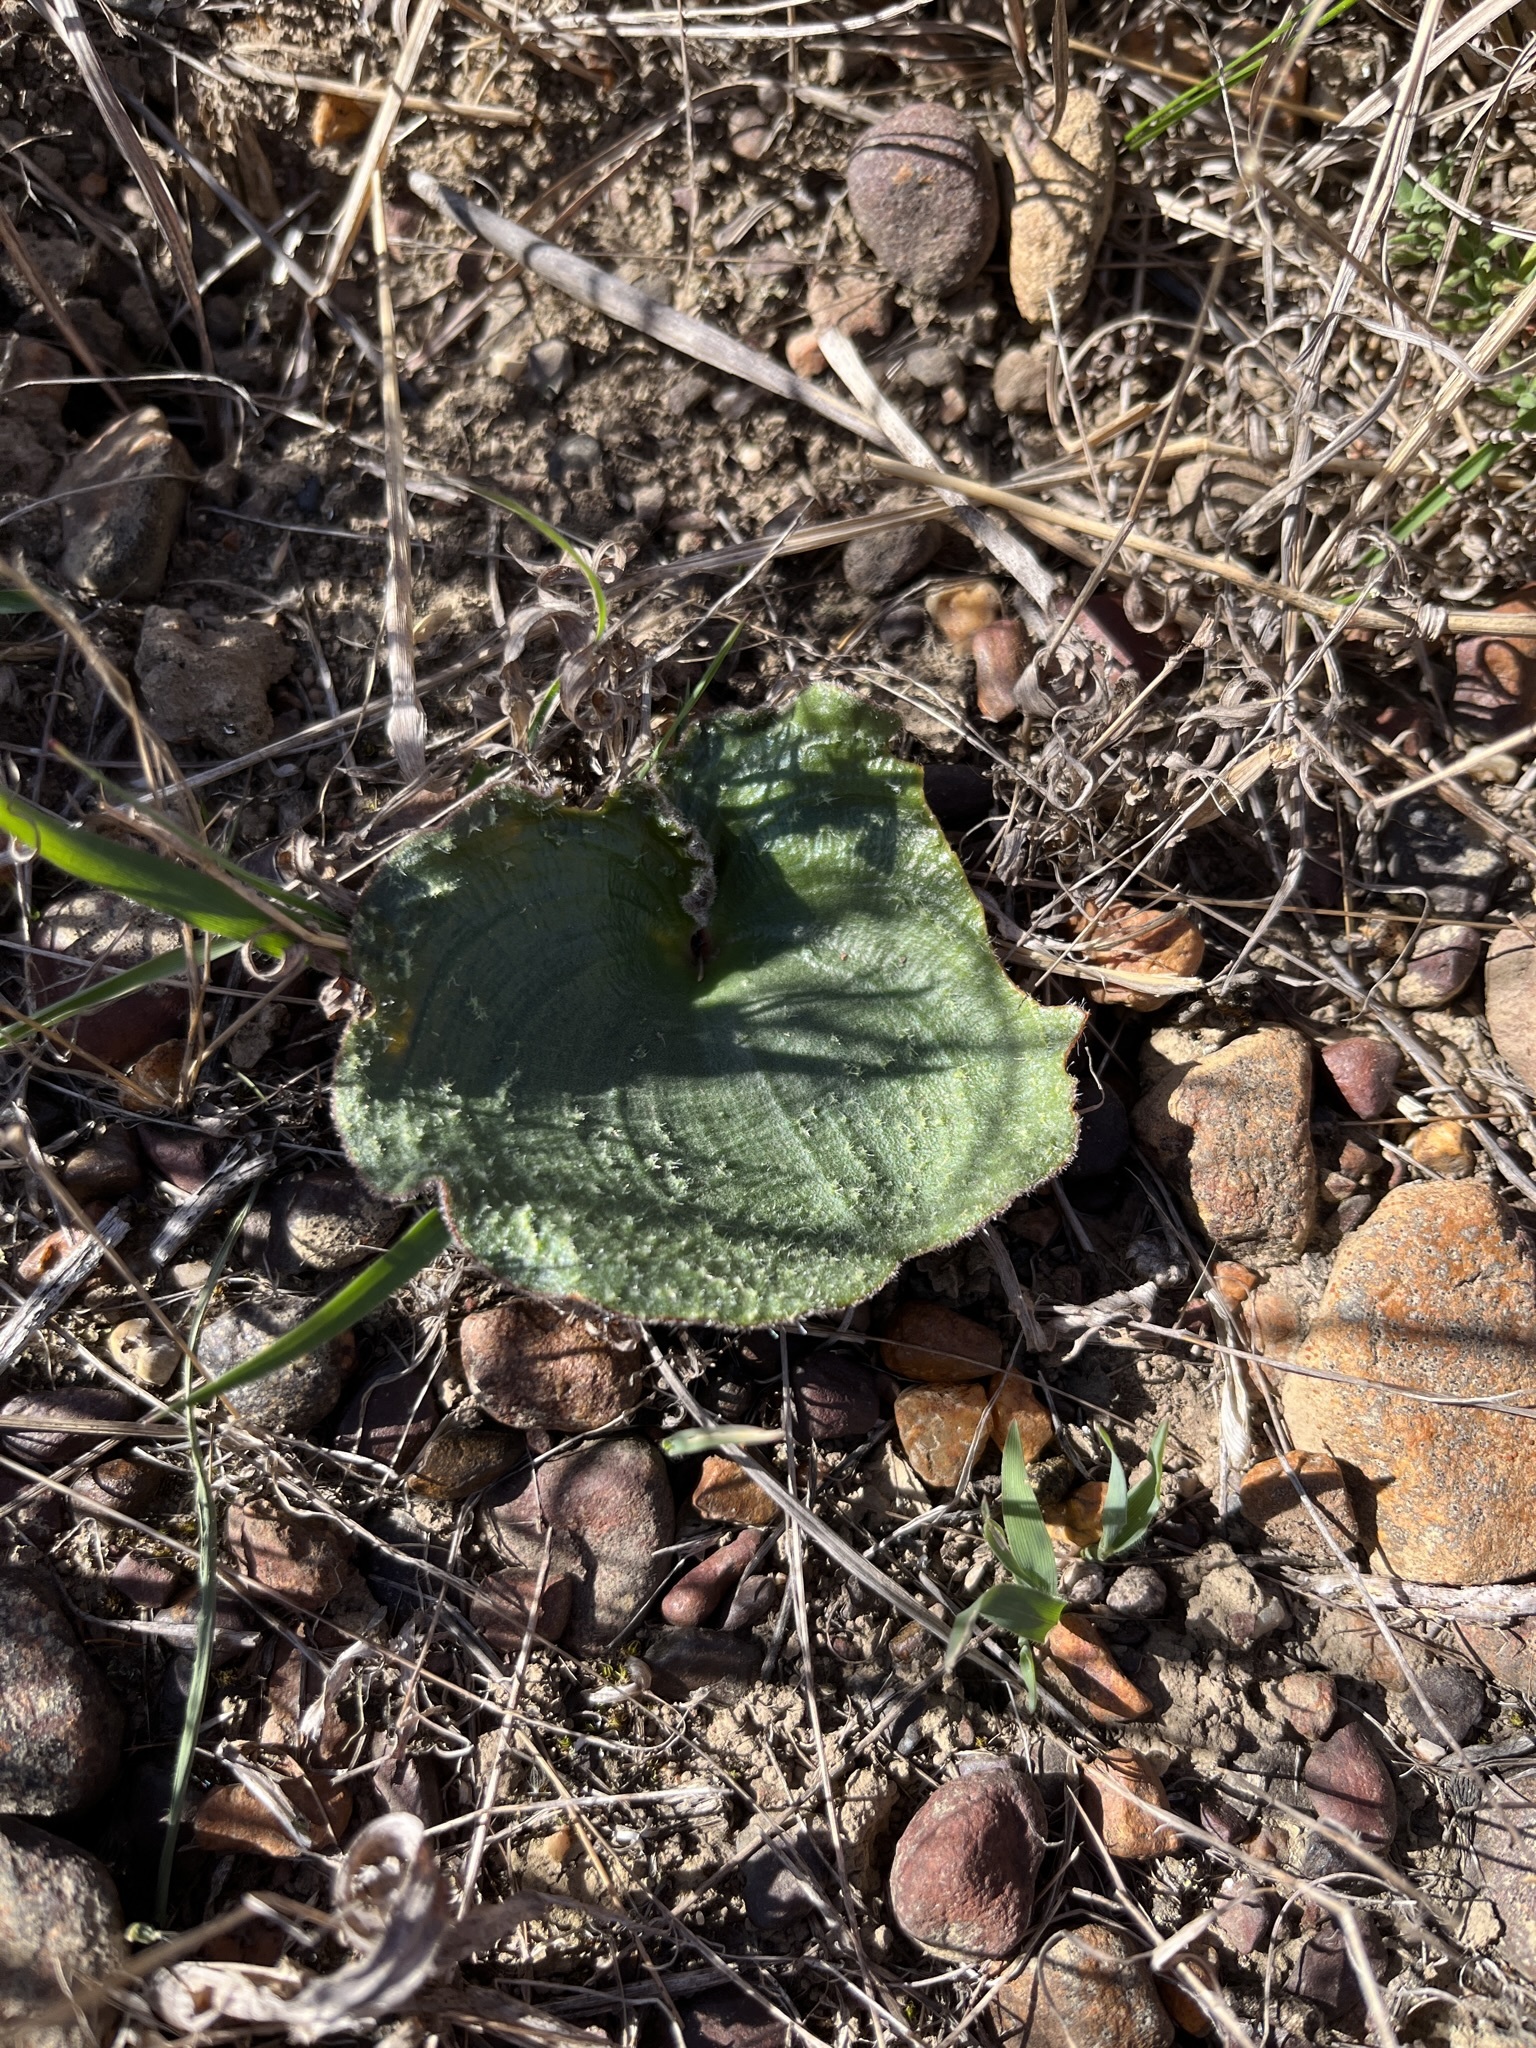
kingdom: Plantae
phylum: Tracheophyta
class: Liliopsida
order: Asparagales
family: Asparagaceae
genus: Eriospermum
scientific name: Eriospermum capense
